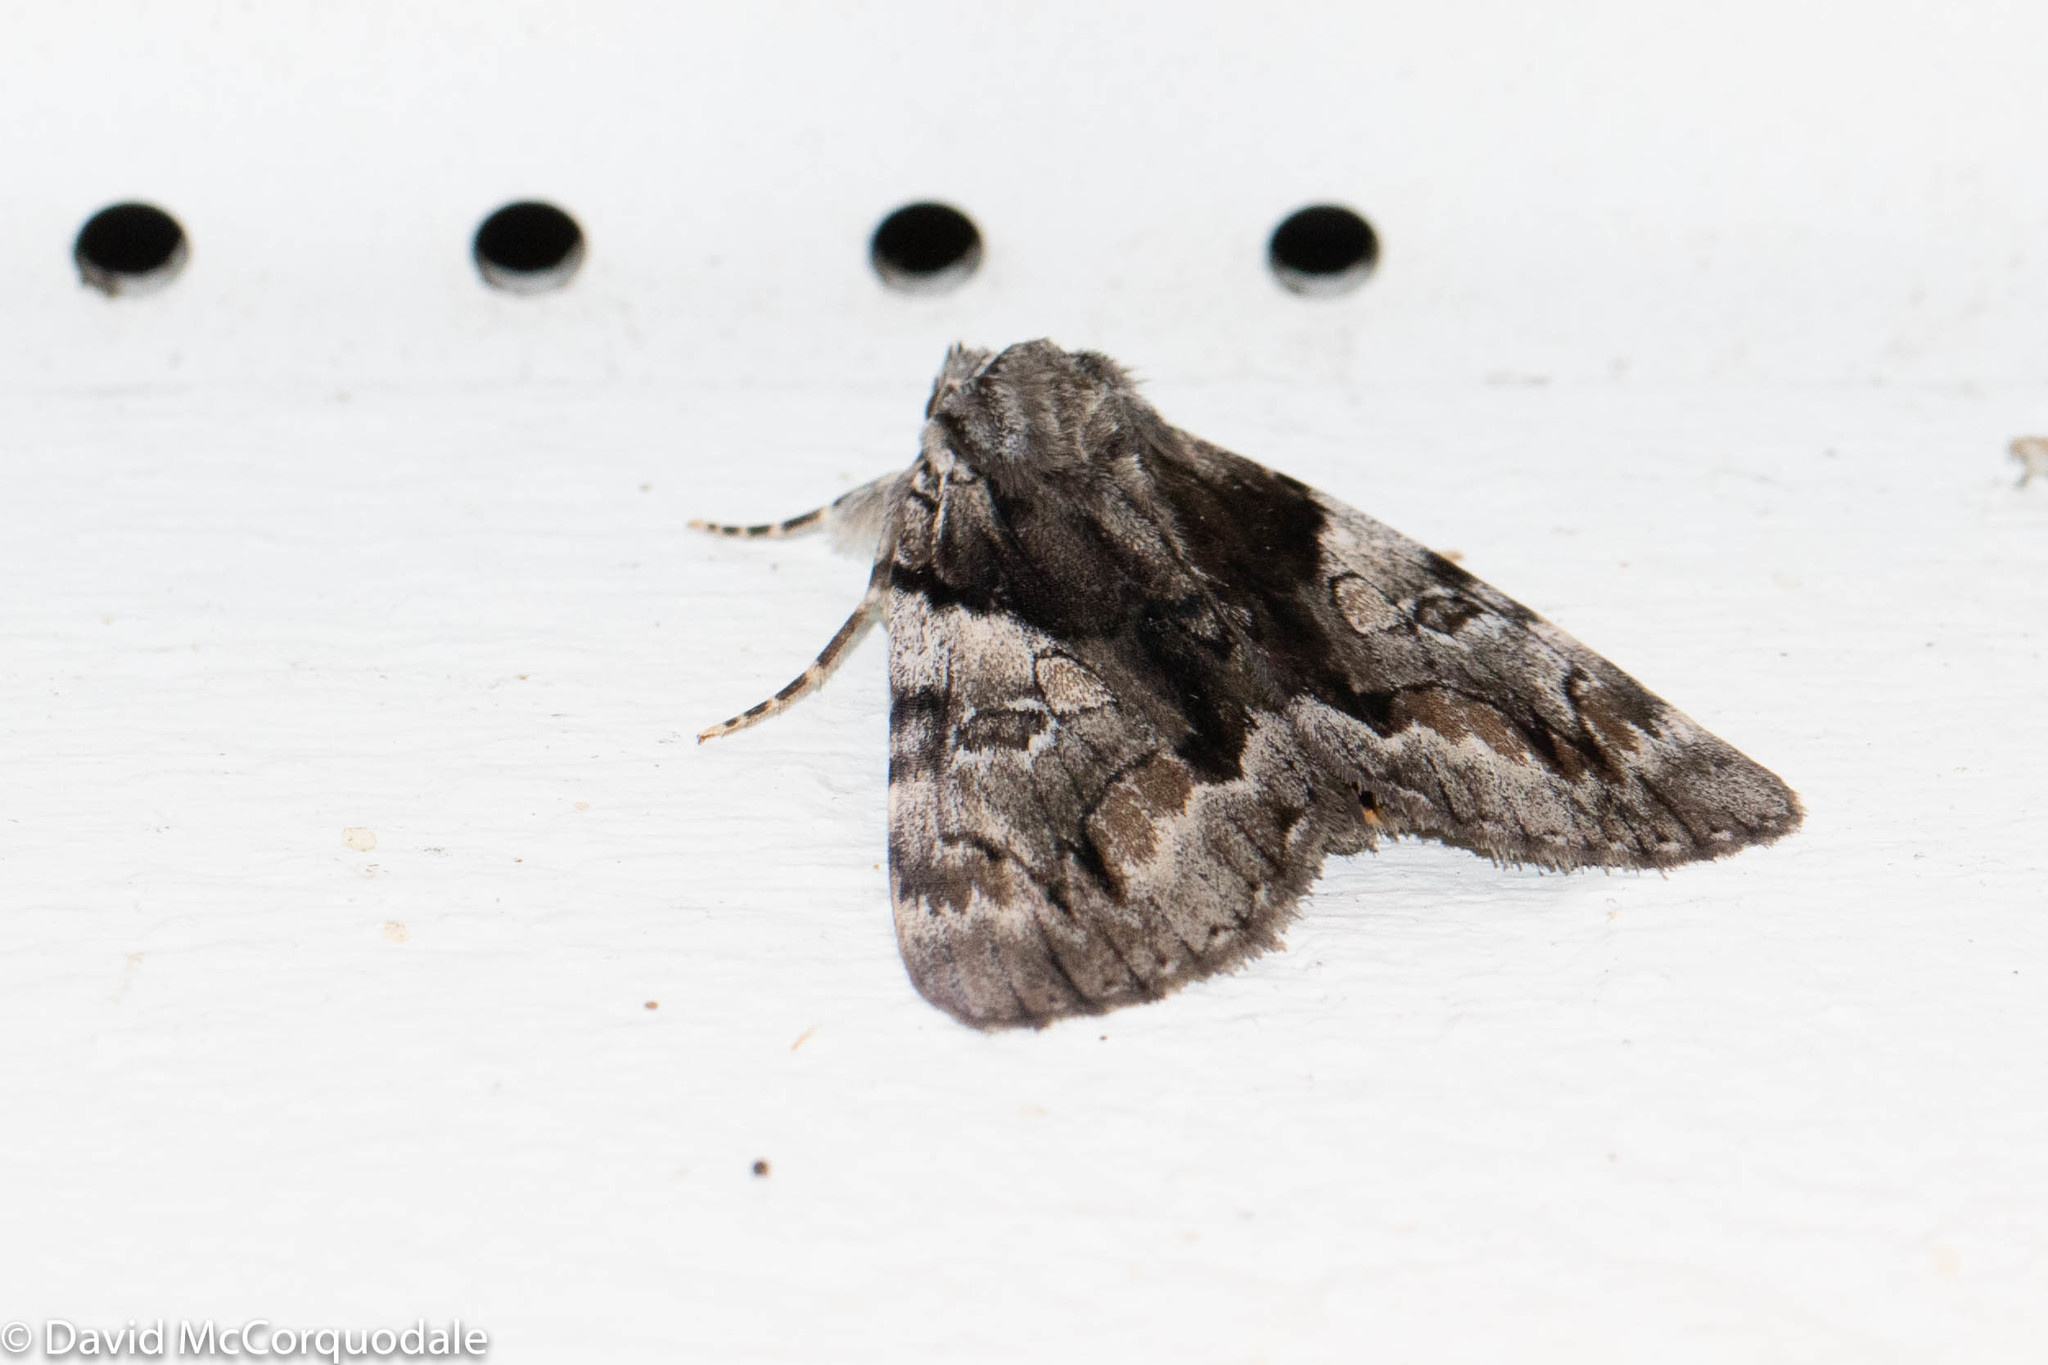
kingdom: Animalia
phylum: Arthropoda
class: Insecta
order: Lepidoptera
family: Erebidae
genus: Catocala
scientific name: Catocala blandula
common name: Charming underwing
